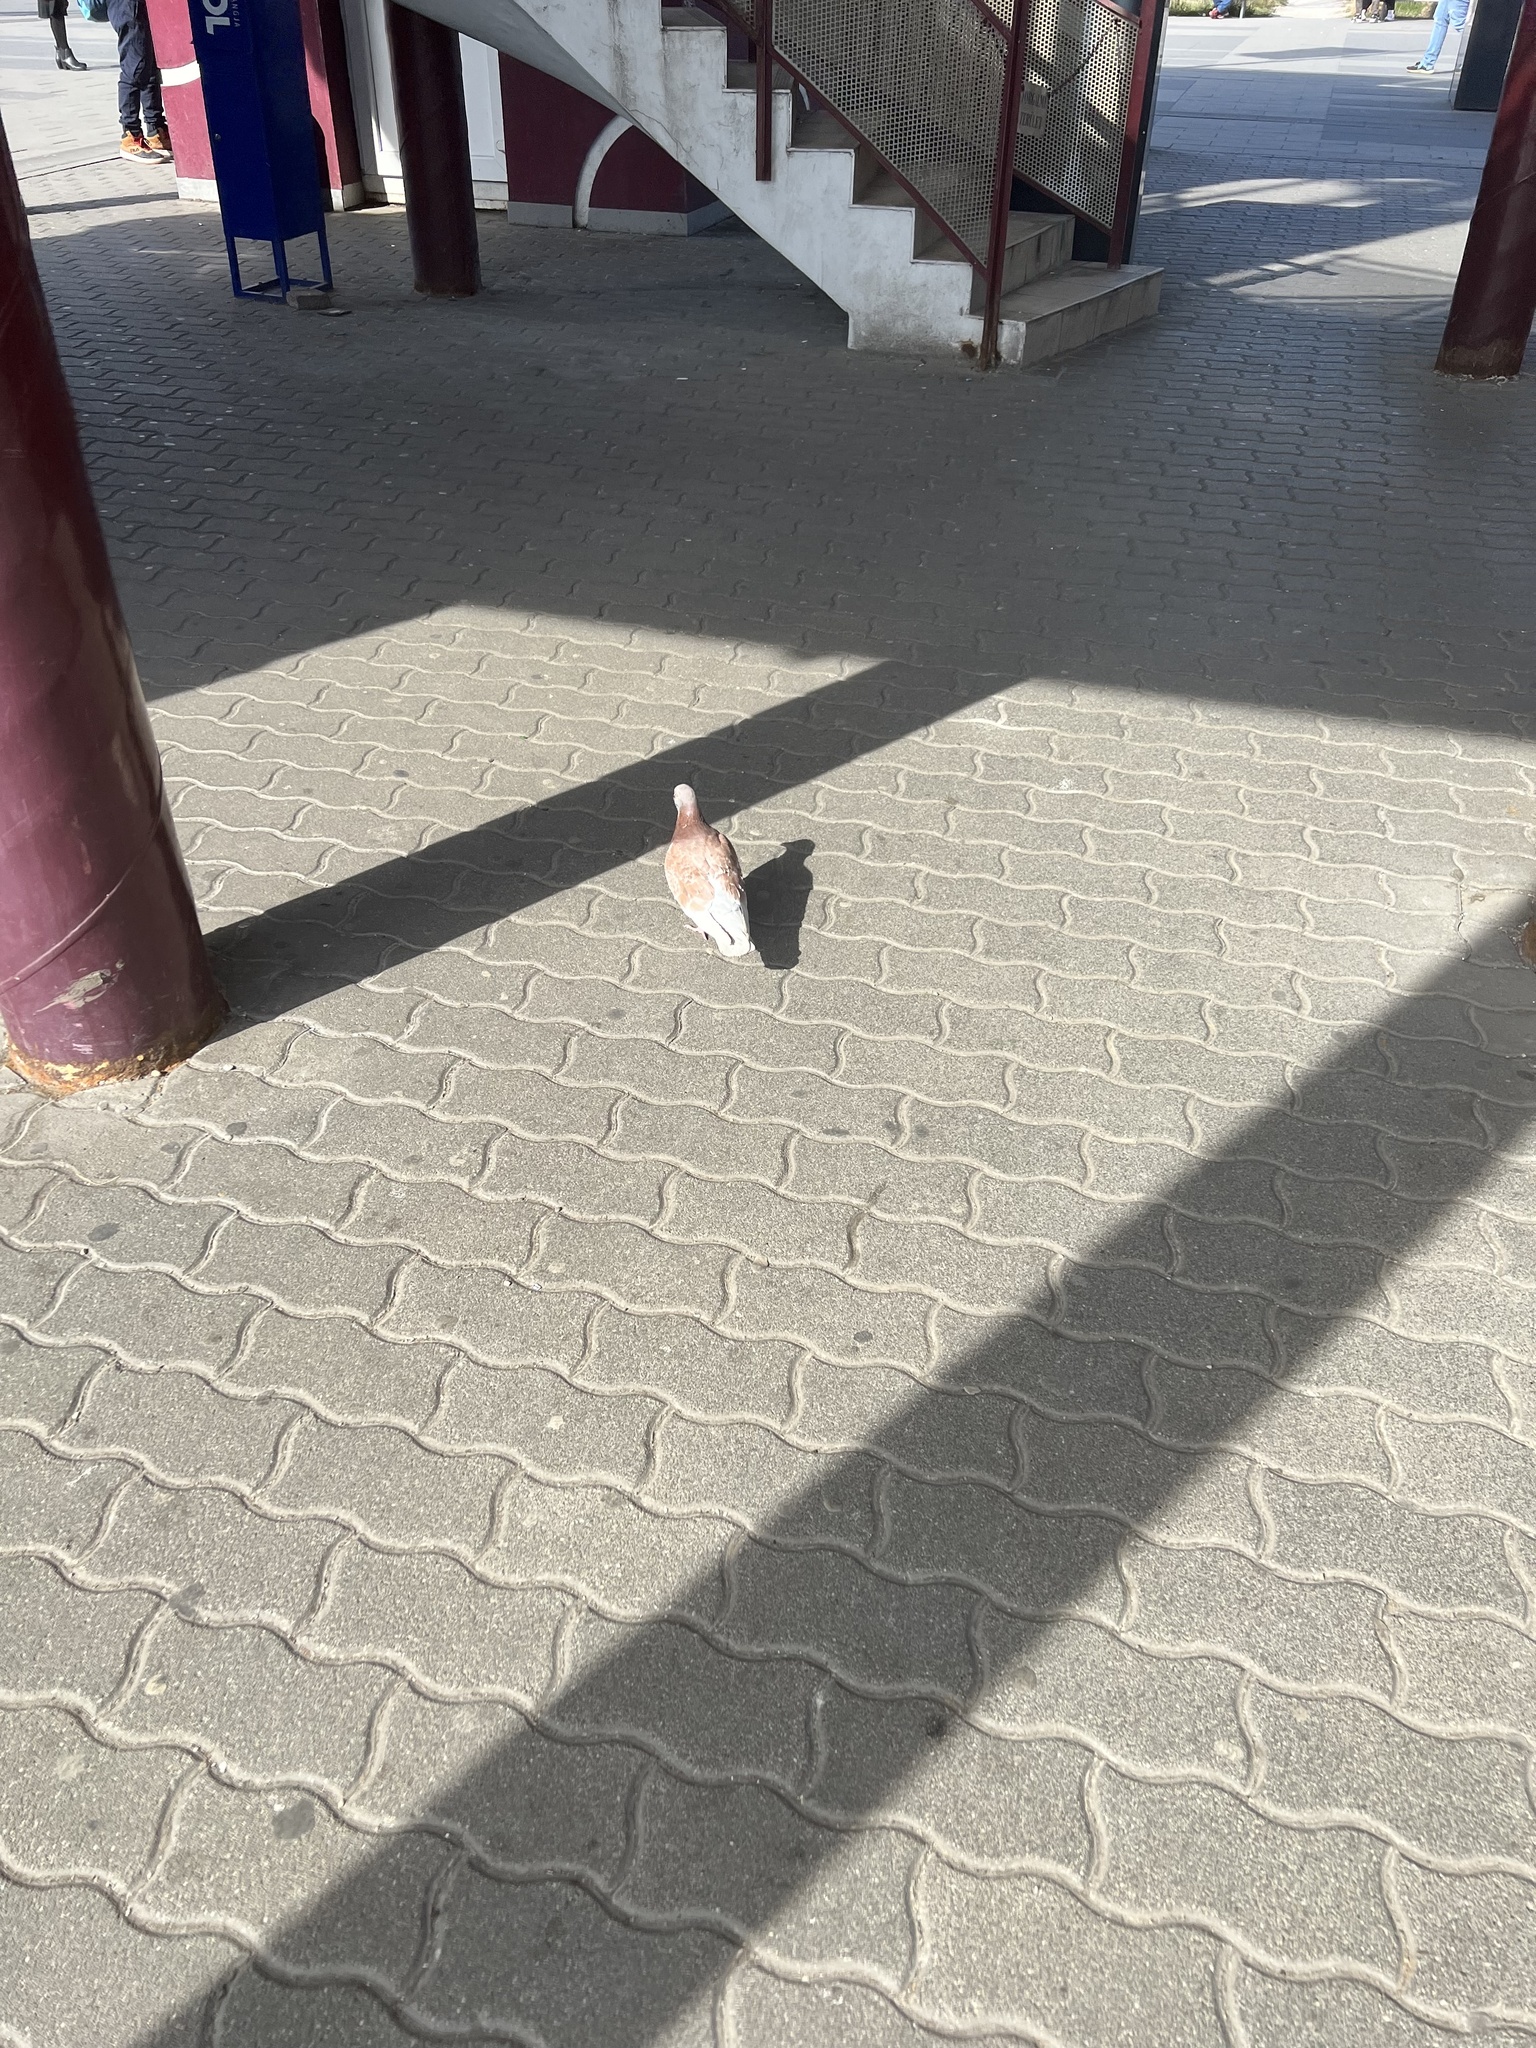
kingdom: Animalia
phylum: Chordata
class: Aves
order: Columbiformes
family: Columbidae
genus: Columba
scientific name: Columba livia
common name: Rock pigeon
